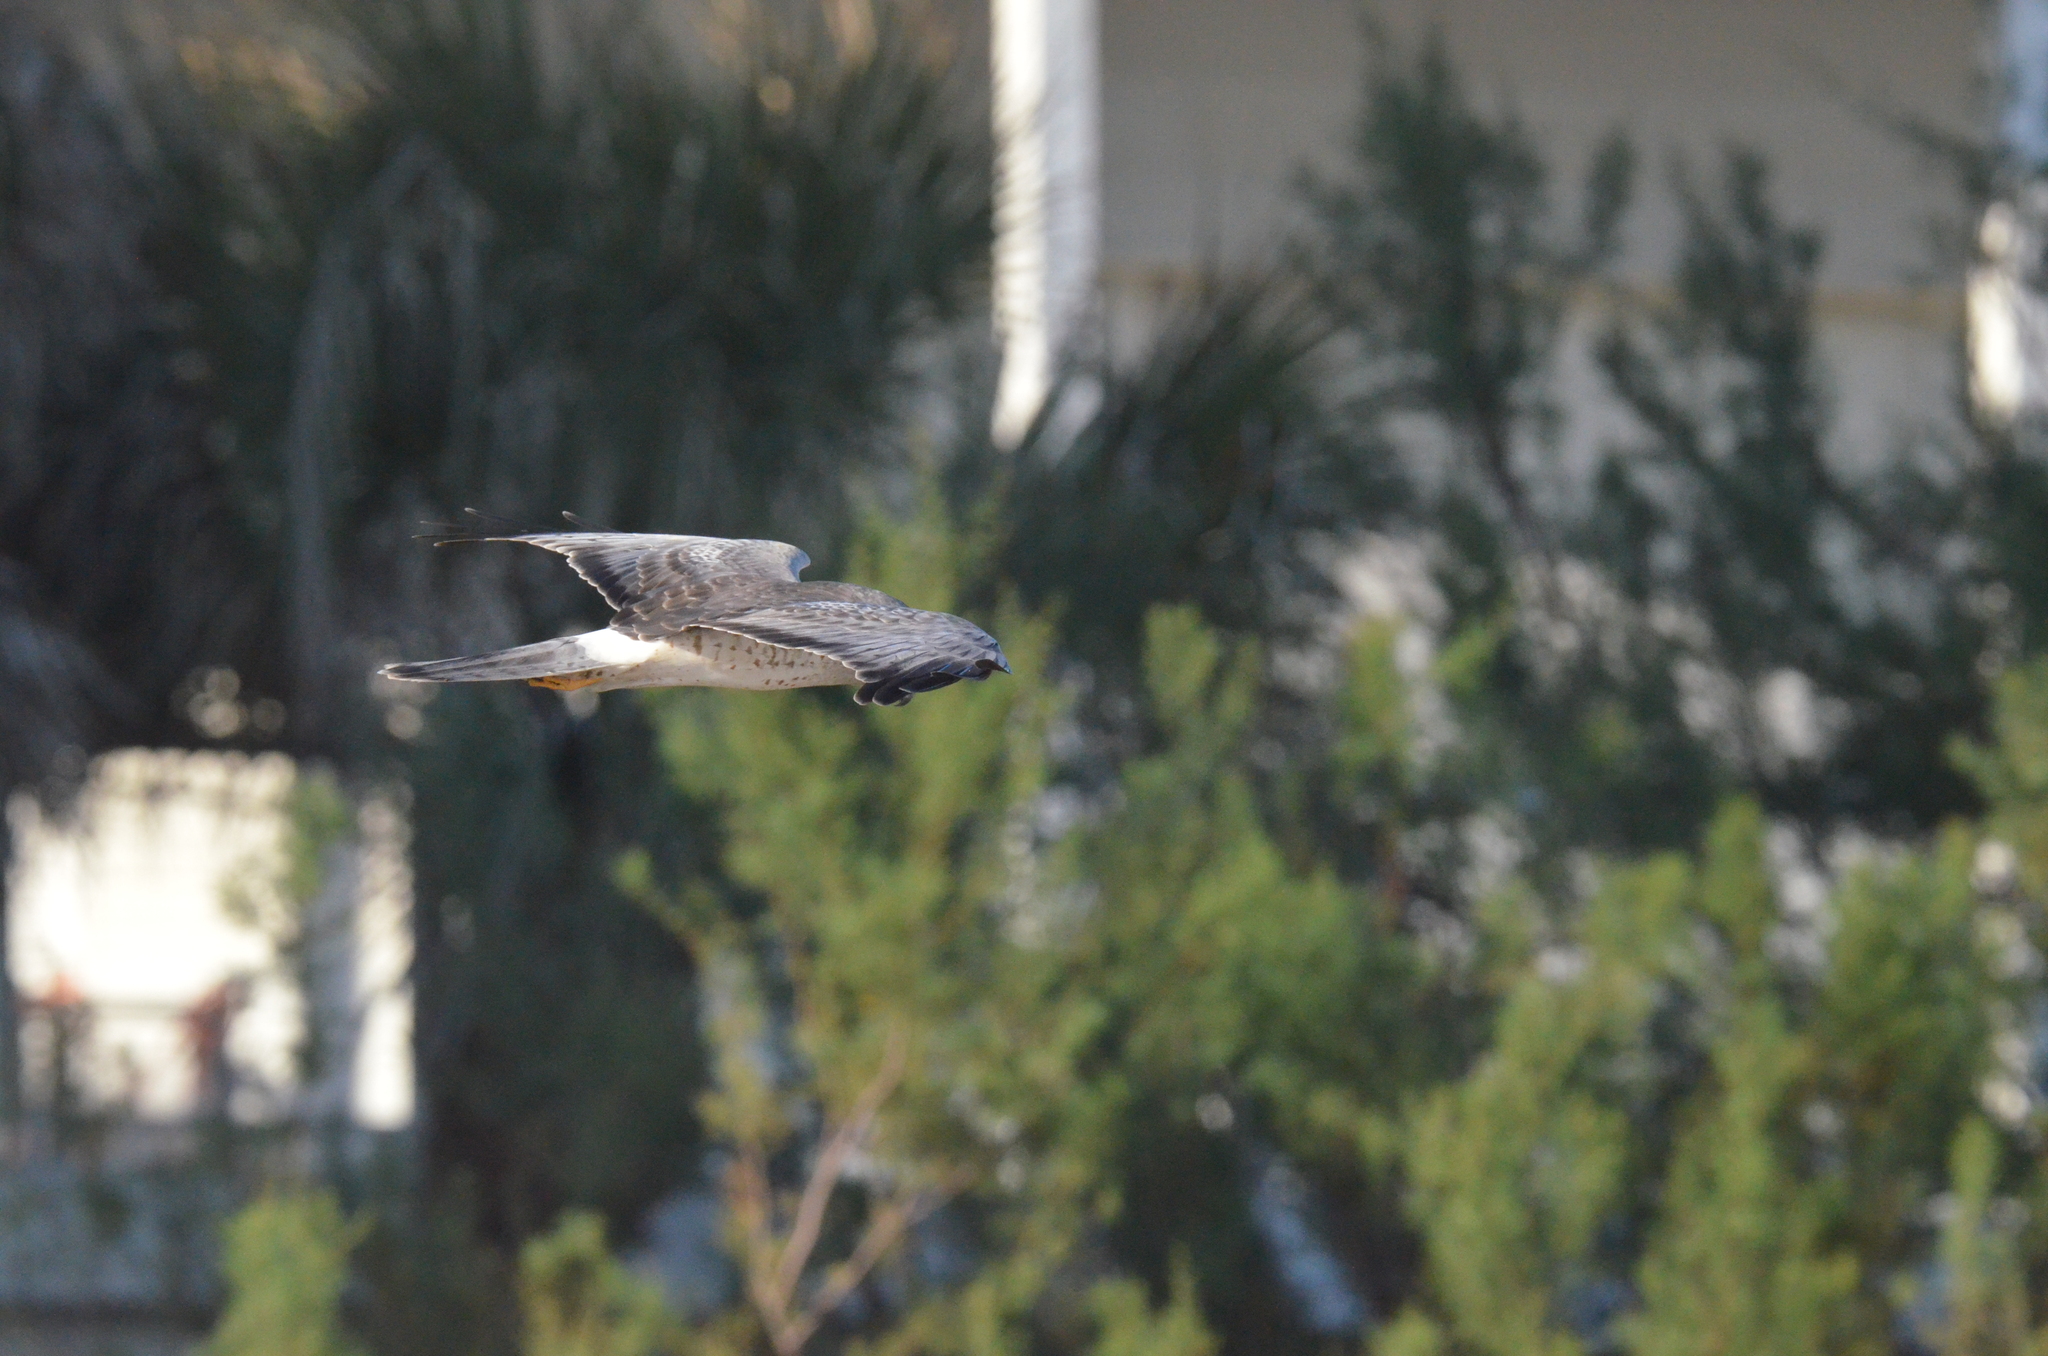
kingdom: Animalia
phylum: Chordata
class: Aves
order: Accipitriformes
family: Accipitridae
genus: Circus
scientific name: Circus cyaneus
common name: Hen harrier
